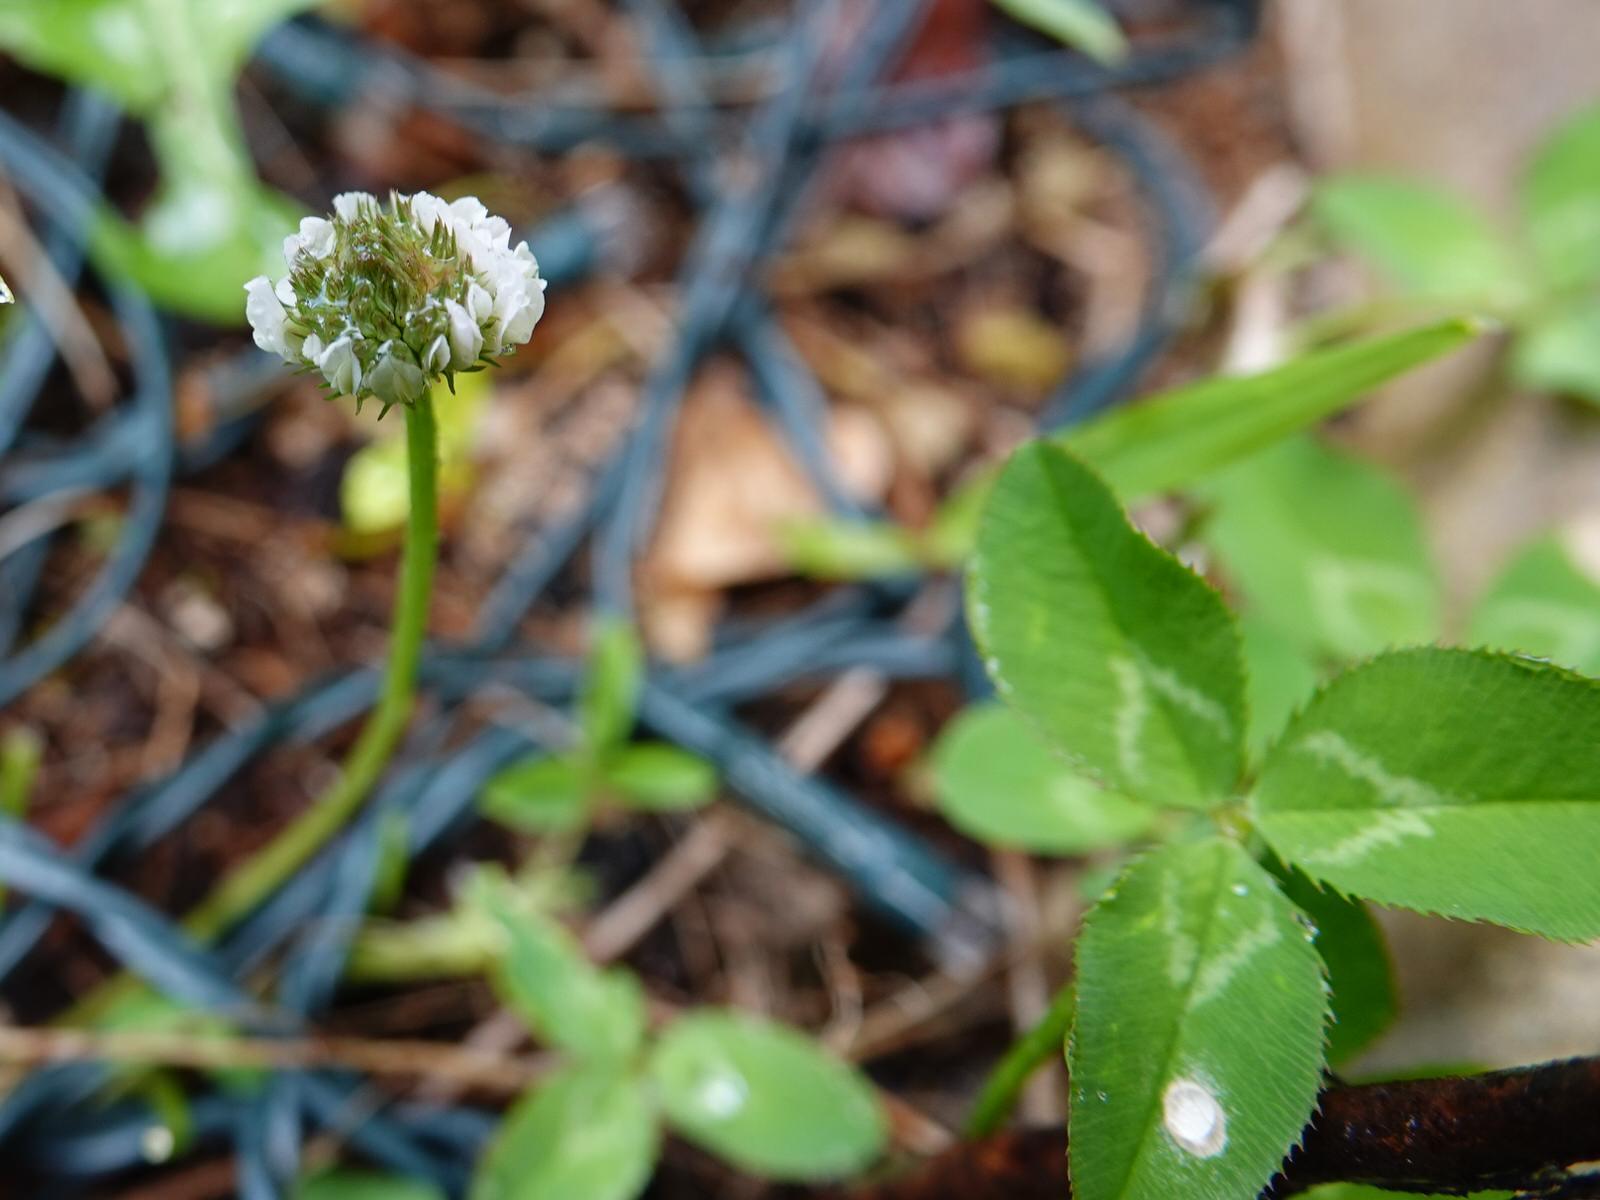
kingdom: Plantae
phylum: Tracheophyta
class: Magnoliopsida
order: Fabales
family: Fabaceae
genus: Trifolium
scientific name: Trifolium repens
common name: White clover
